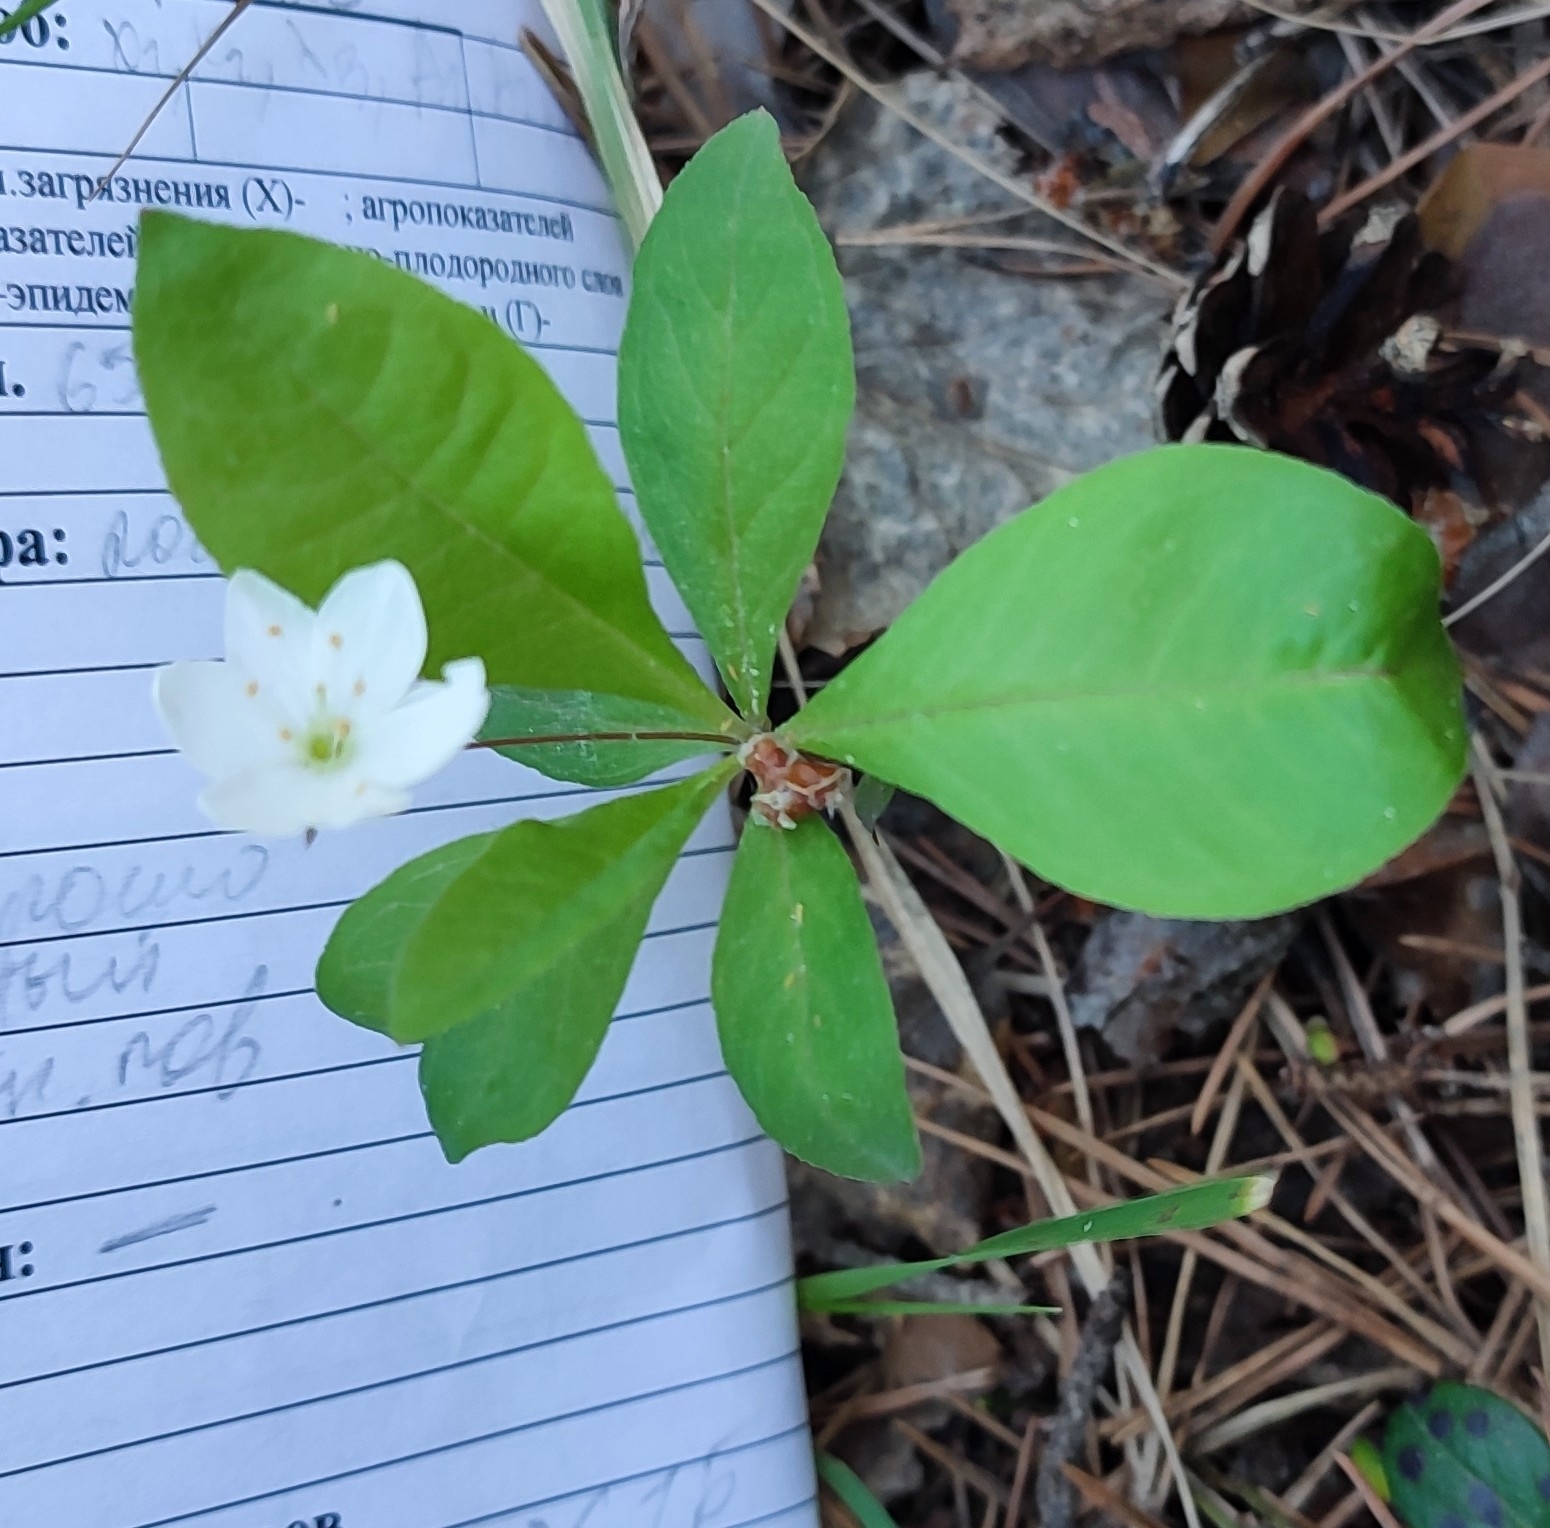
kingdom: Plantae
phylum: Tracheophyta
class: Magnoliopsida
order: Ericales
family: Primulaceae
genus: Lysimachia
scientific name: Lysimachia europaea
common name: Arctic starflower
